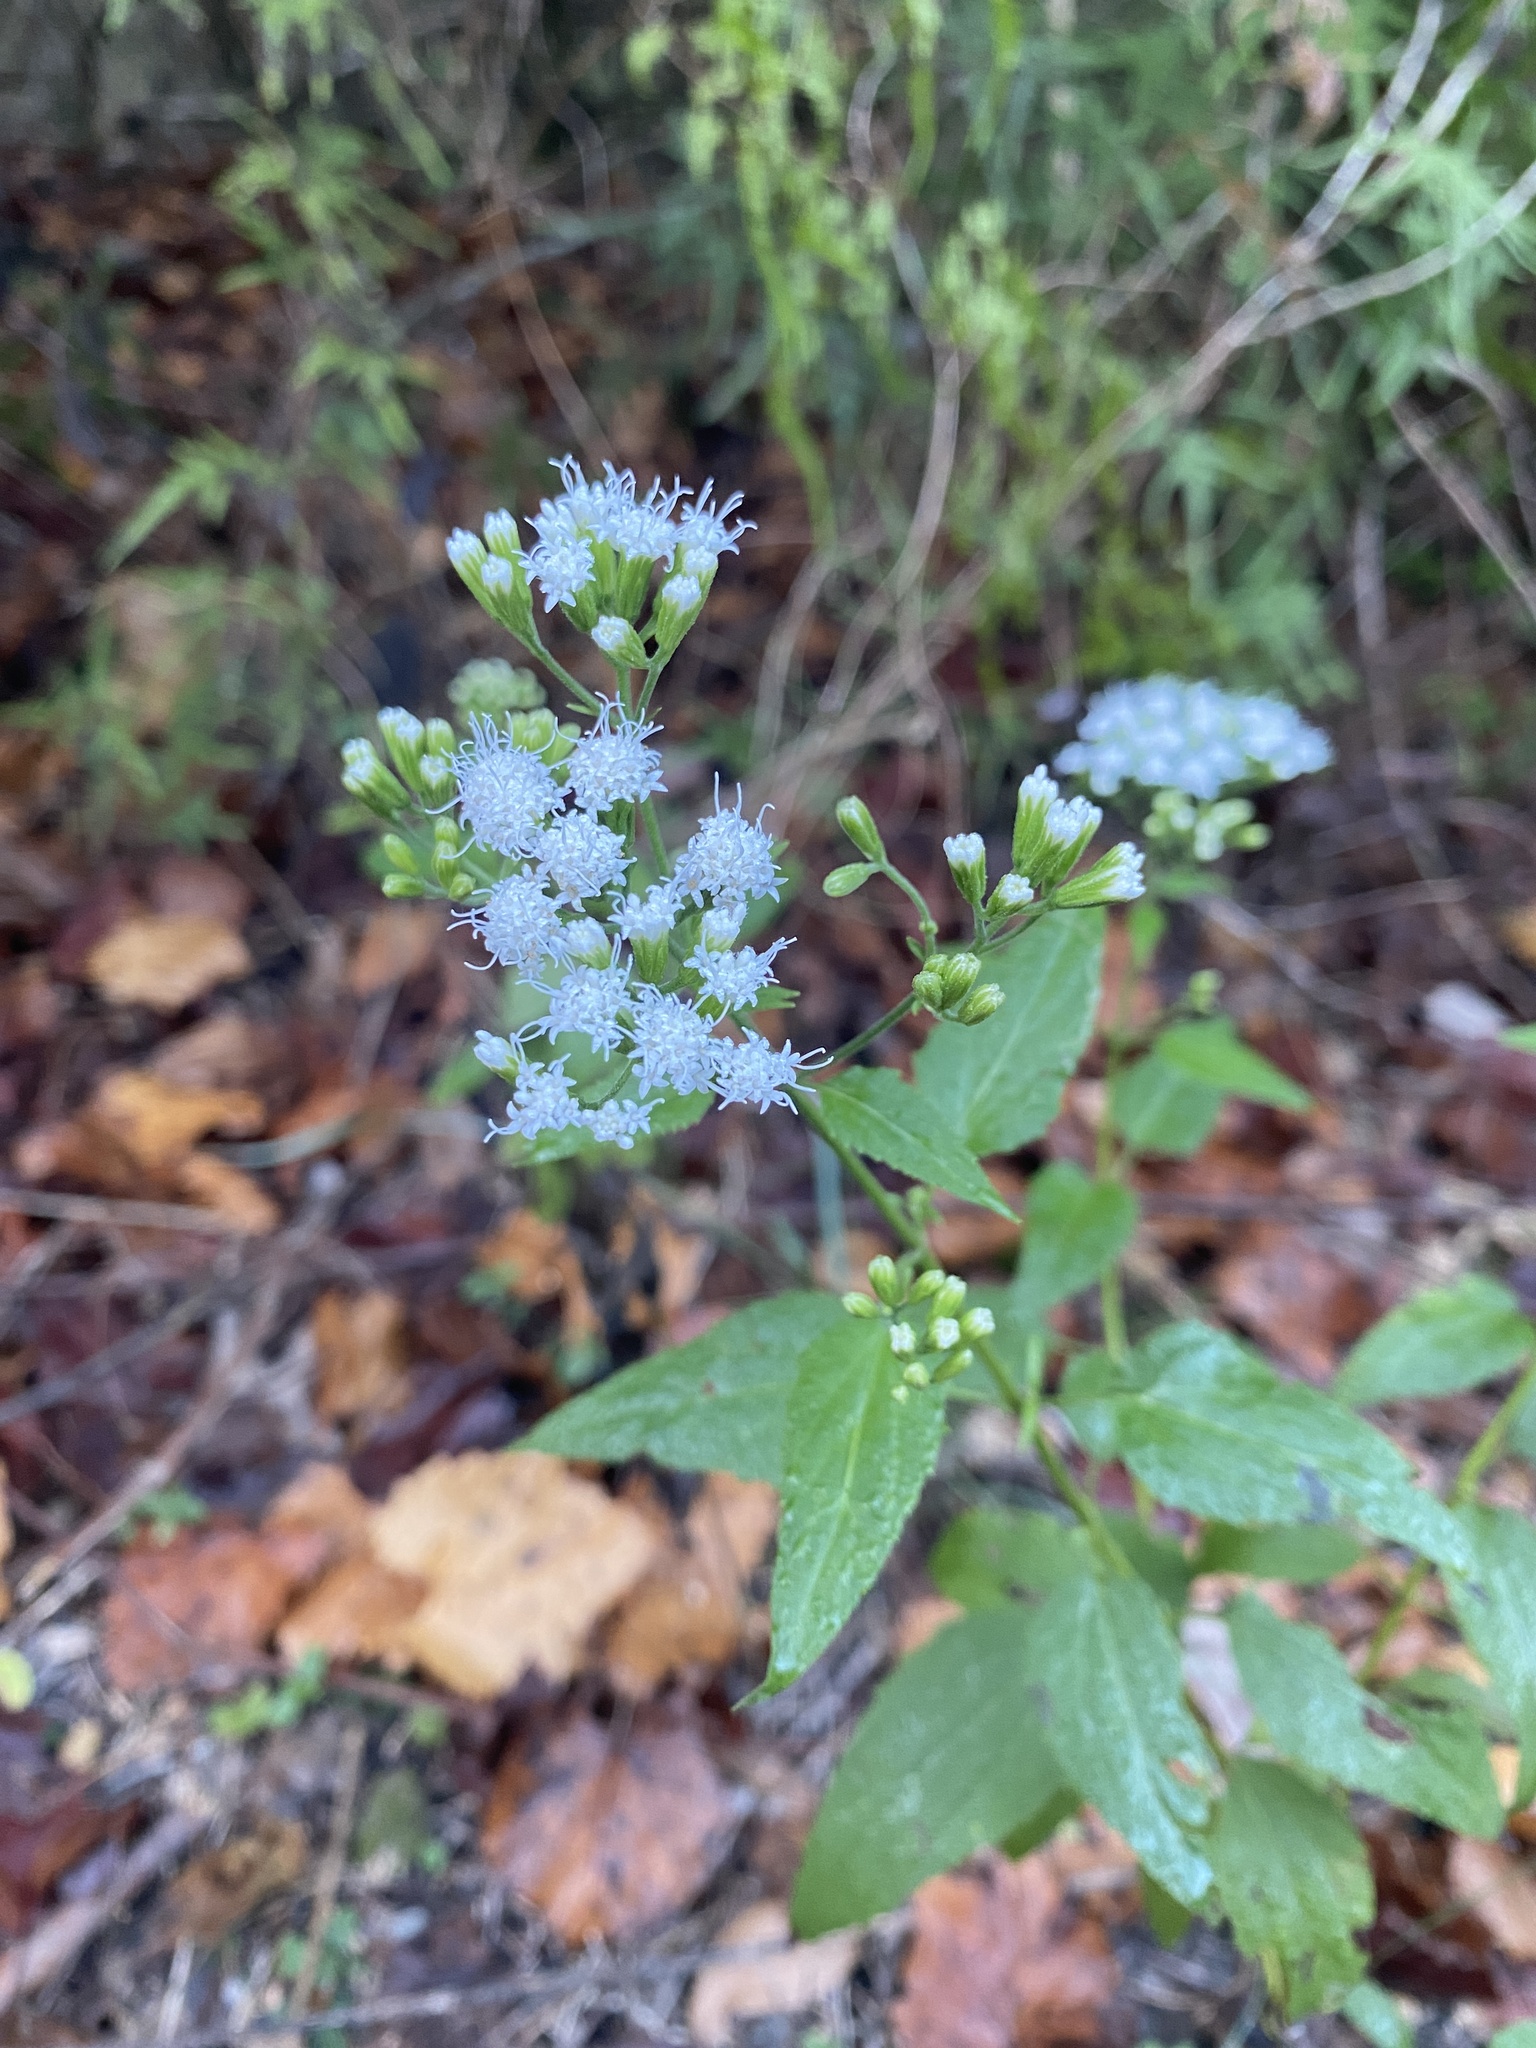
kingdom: Plantae
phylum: Tracheophyta
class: Magnoliopsida
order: Asterales
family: Asteraceae
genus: Ageratina
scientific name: Ageratina altissima
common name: White snakeroot
